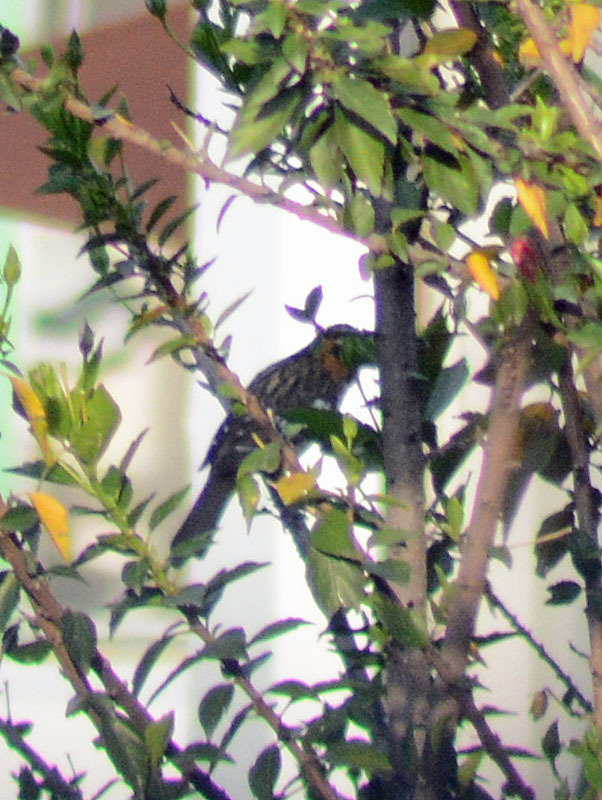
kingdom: Animalia
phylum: Chordata
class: Aves
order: Passeriformes
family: Cardinalidae
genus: Pheucticus
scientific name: Pheucticus melanocephalus
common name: Black-headed grosbeak
